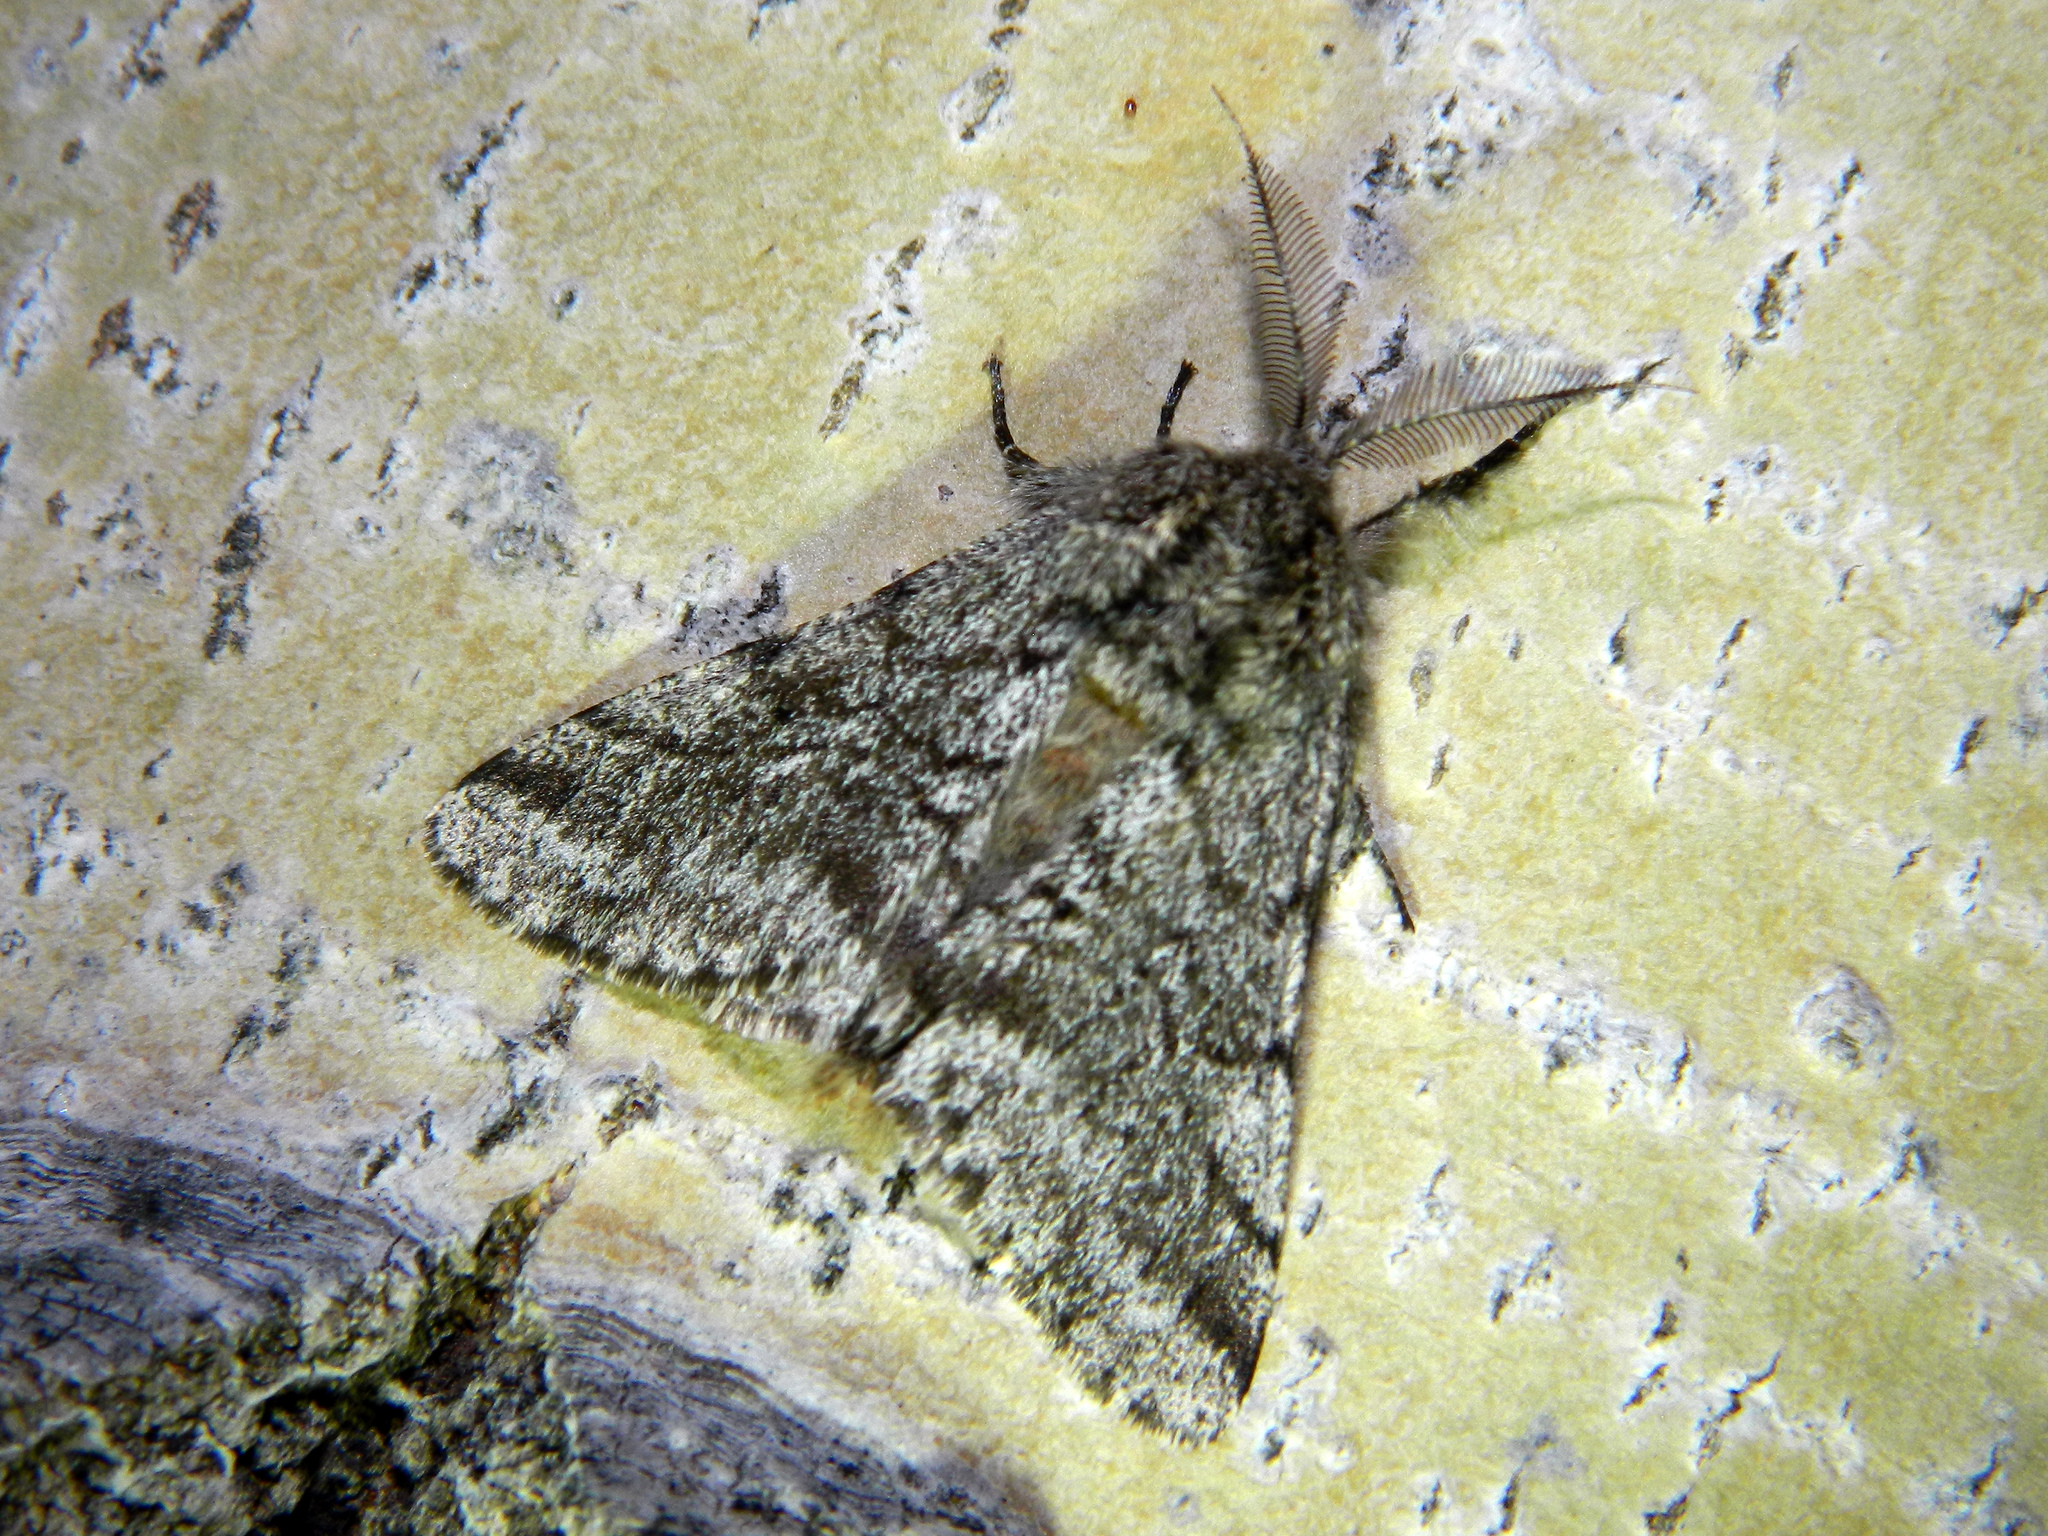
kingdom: Animalia
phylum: Arthropoda
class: Insecta
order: Lepidoptera
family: Geometridae
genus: Lycia
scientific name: Lycia ursaria
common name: Stout spanworm
